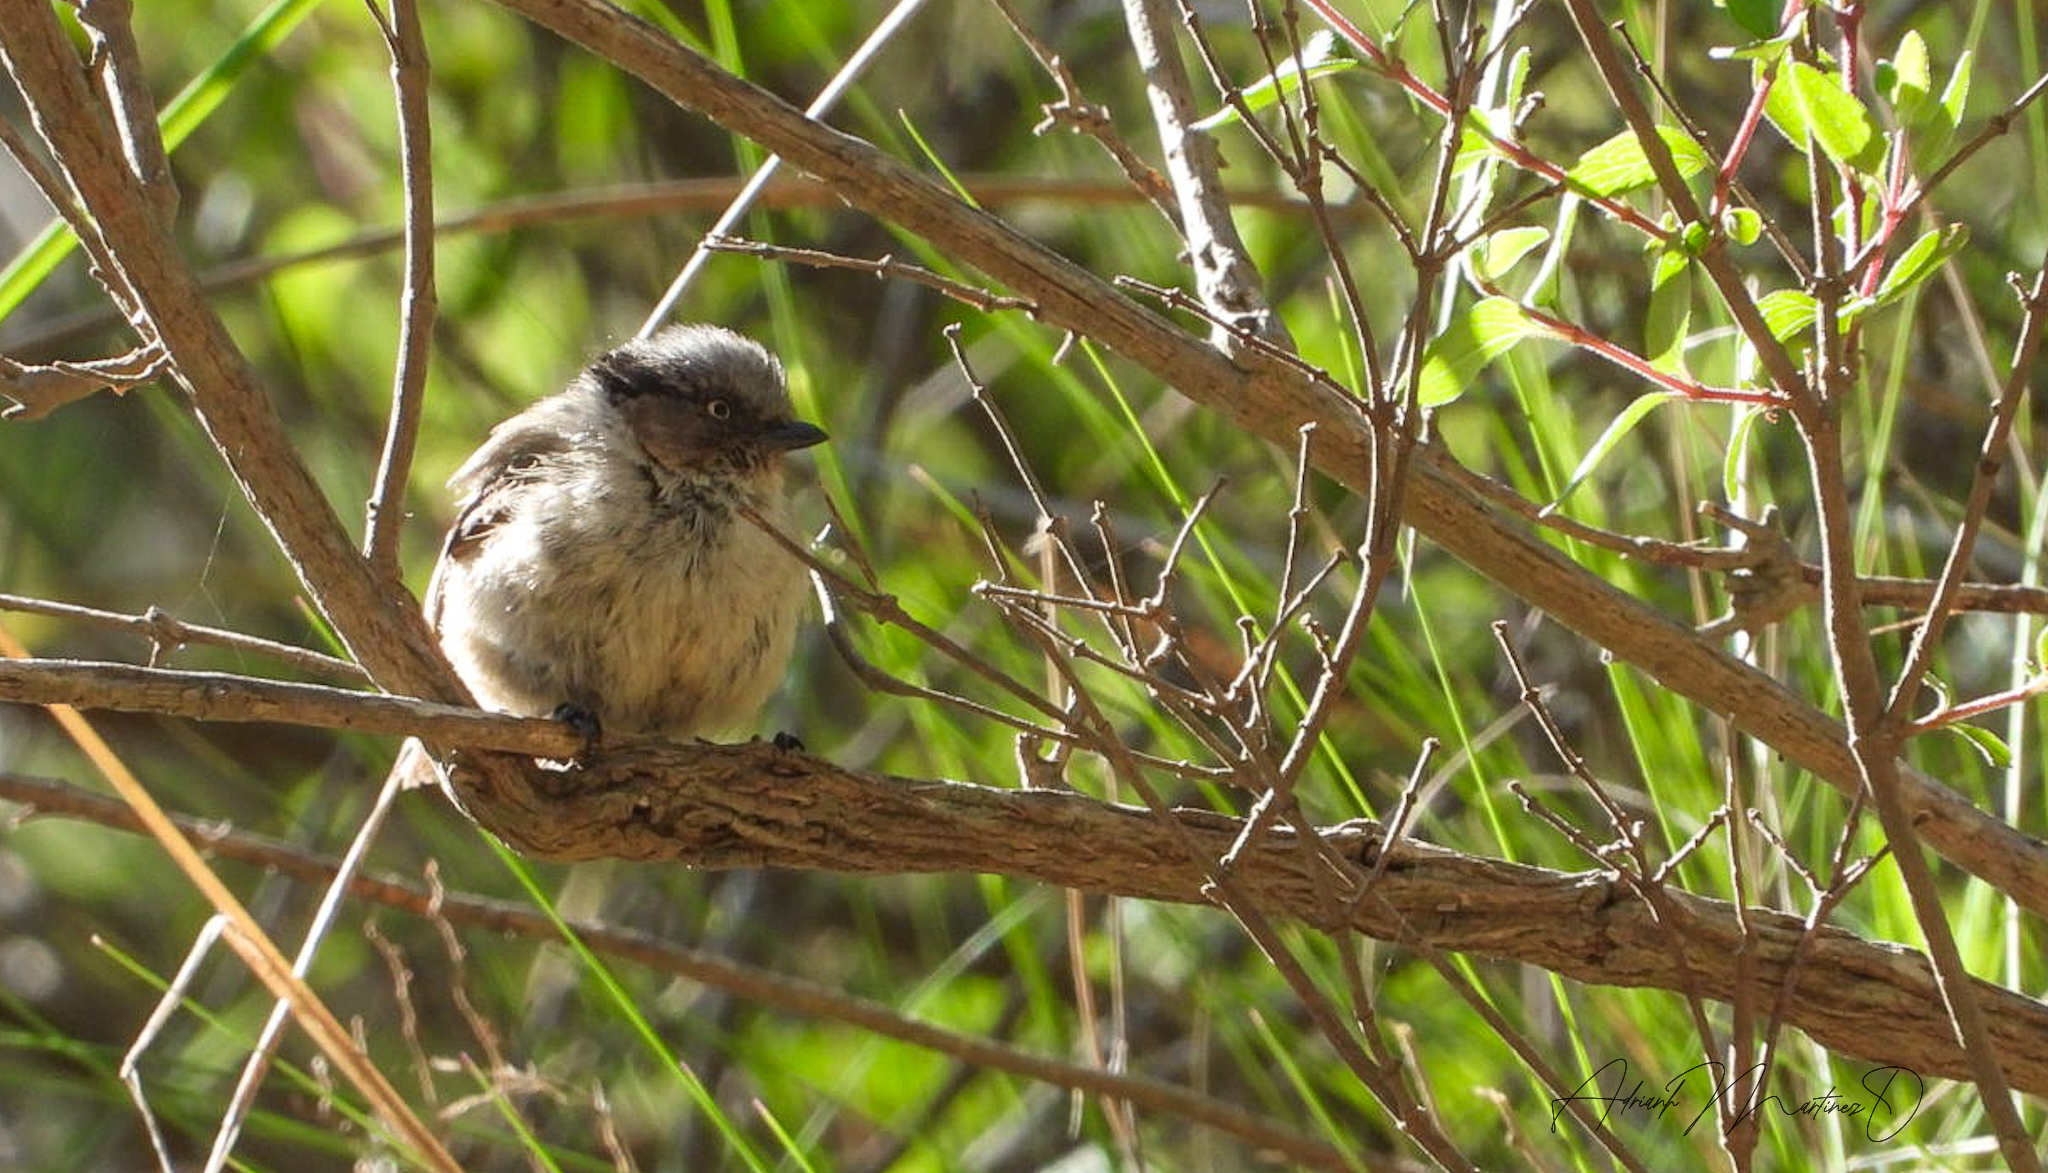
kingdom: Animalia
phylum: Chordata
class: Aves
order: Passeriformes
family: Aegithalidae
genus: Psaltriparus
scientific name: Psaltriparus minimus
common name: American bushtit
